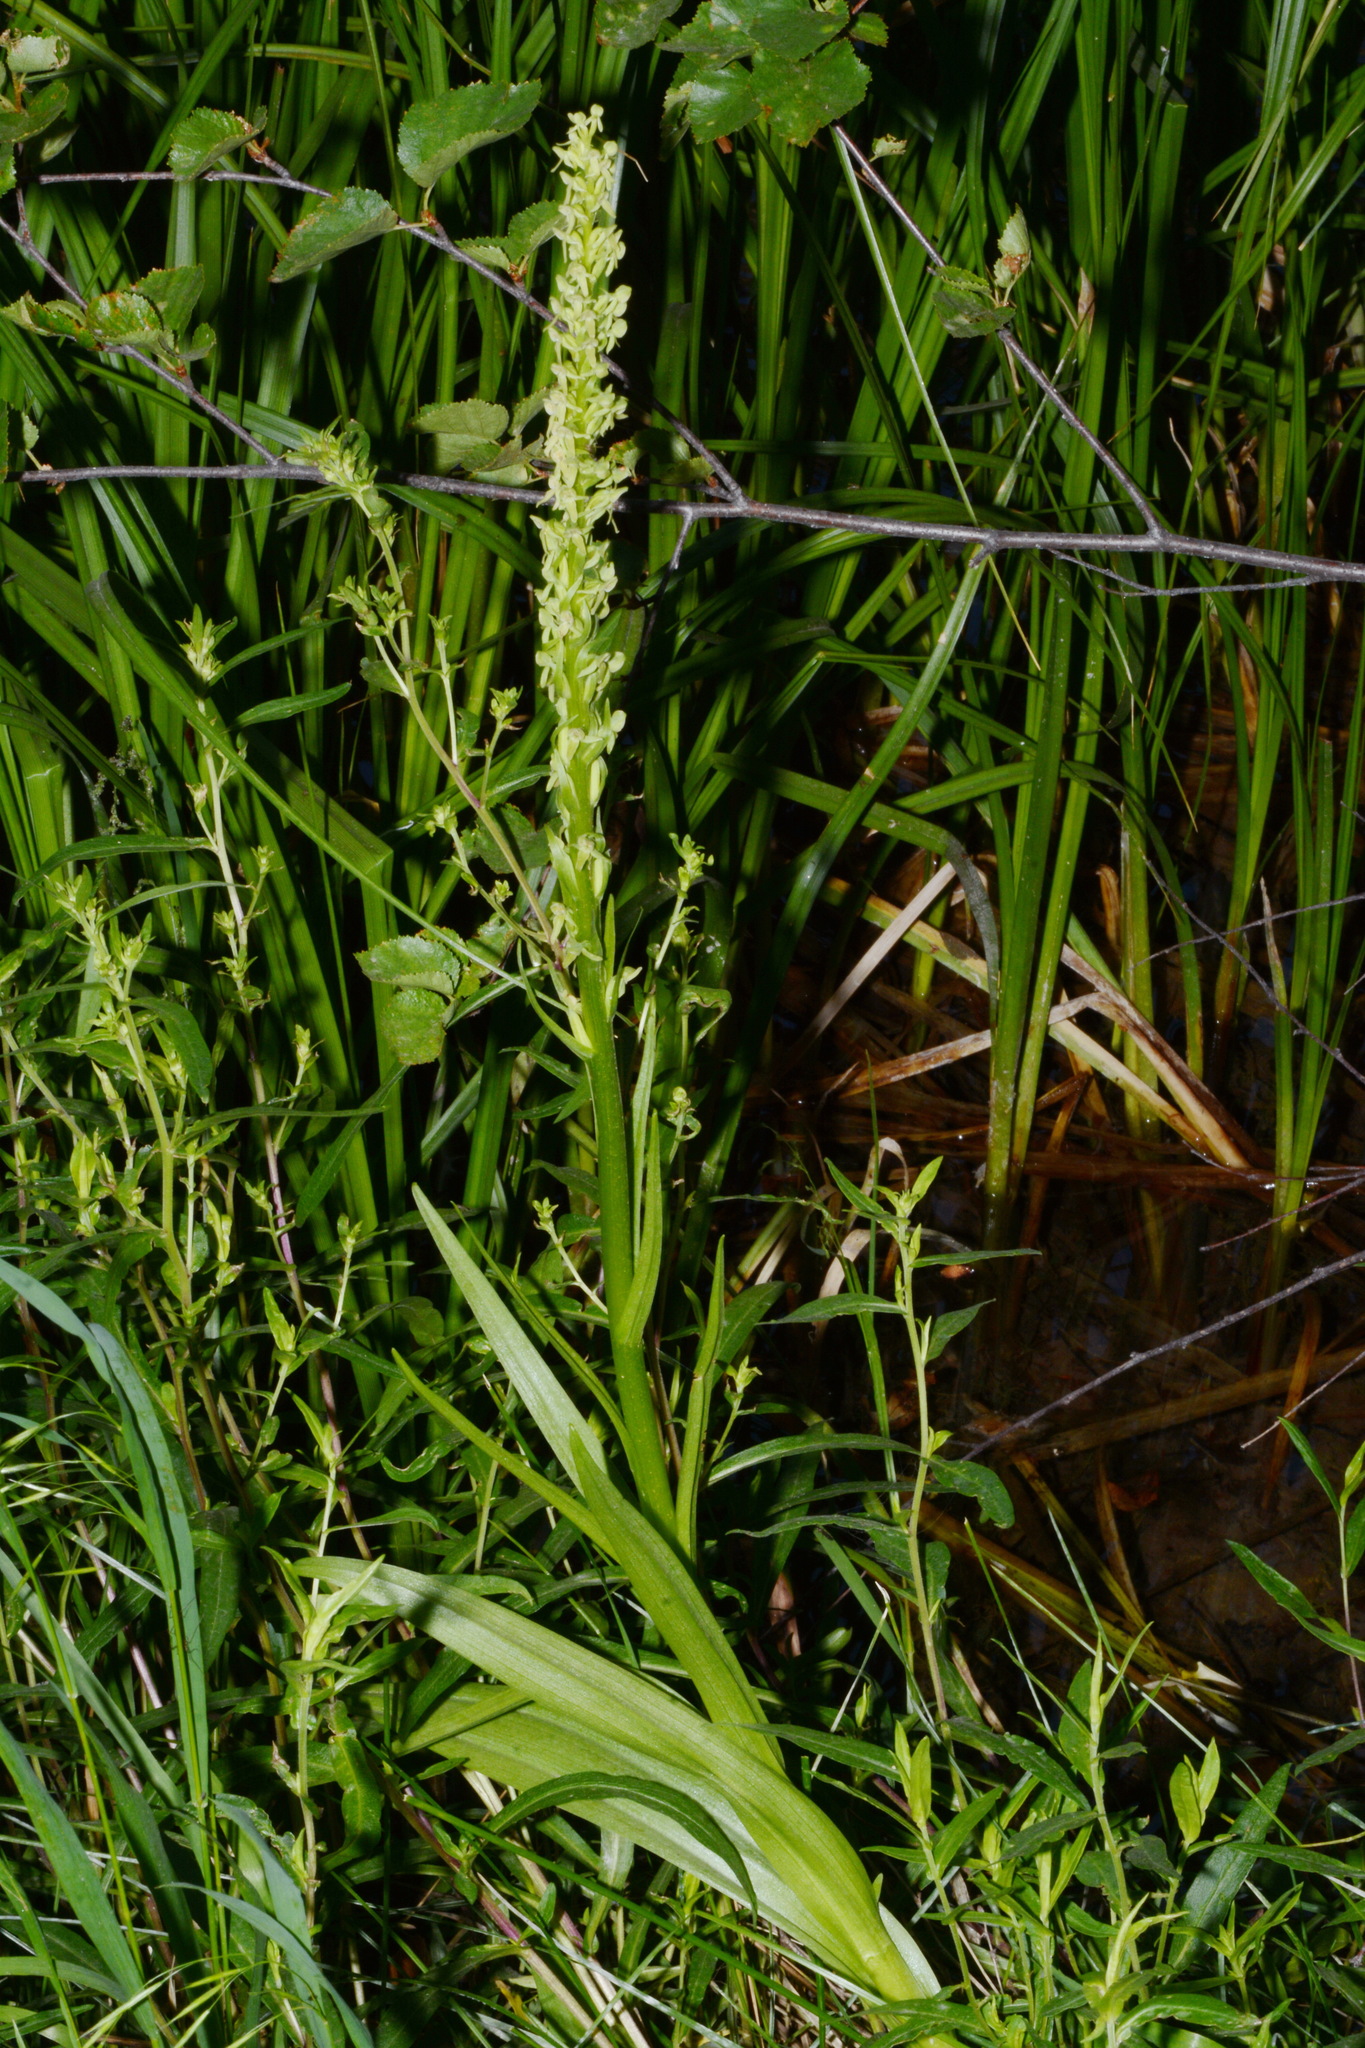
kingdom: Plantae
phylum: Tracheophyta
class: Liliopsida
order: Asparagales
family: Orchidaceae
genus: Platanthera
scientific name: Platanthera huronensis
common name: Fragrant green orchid
